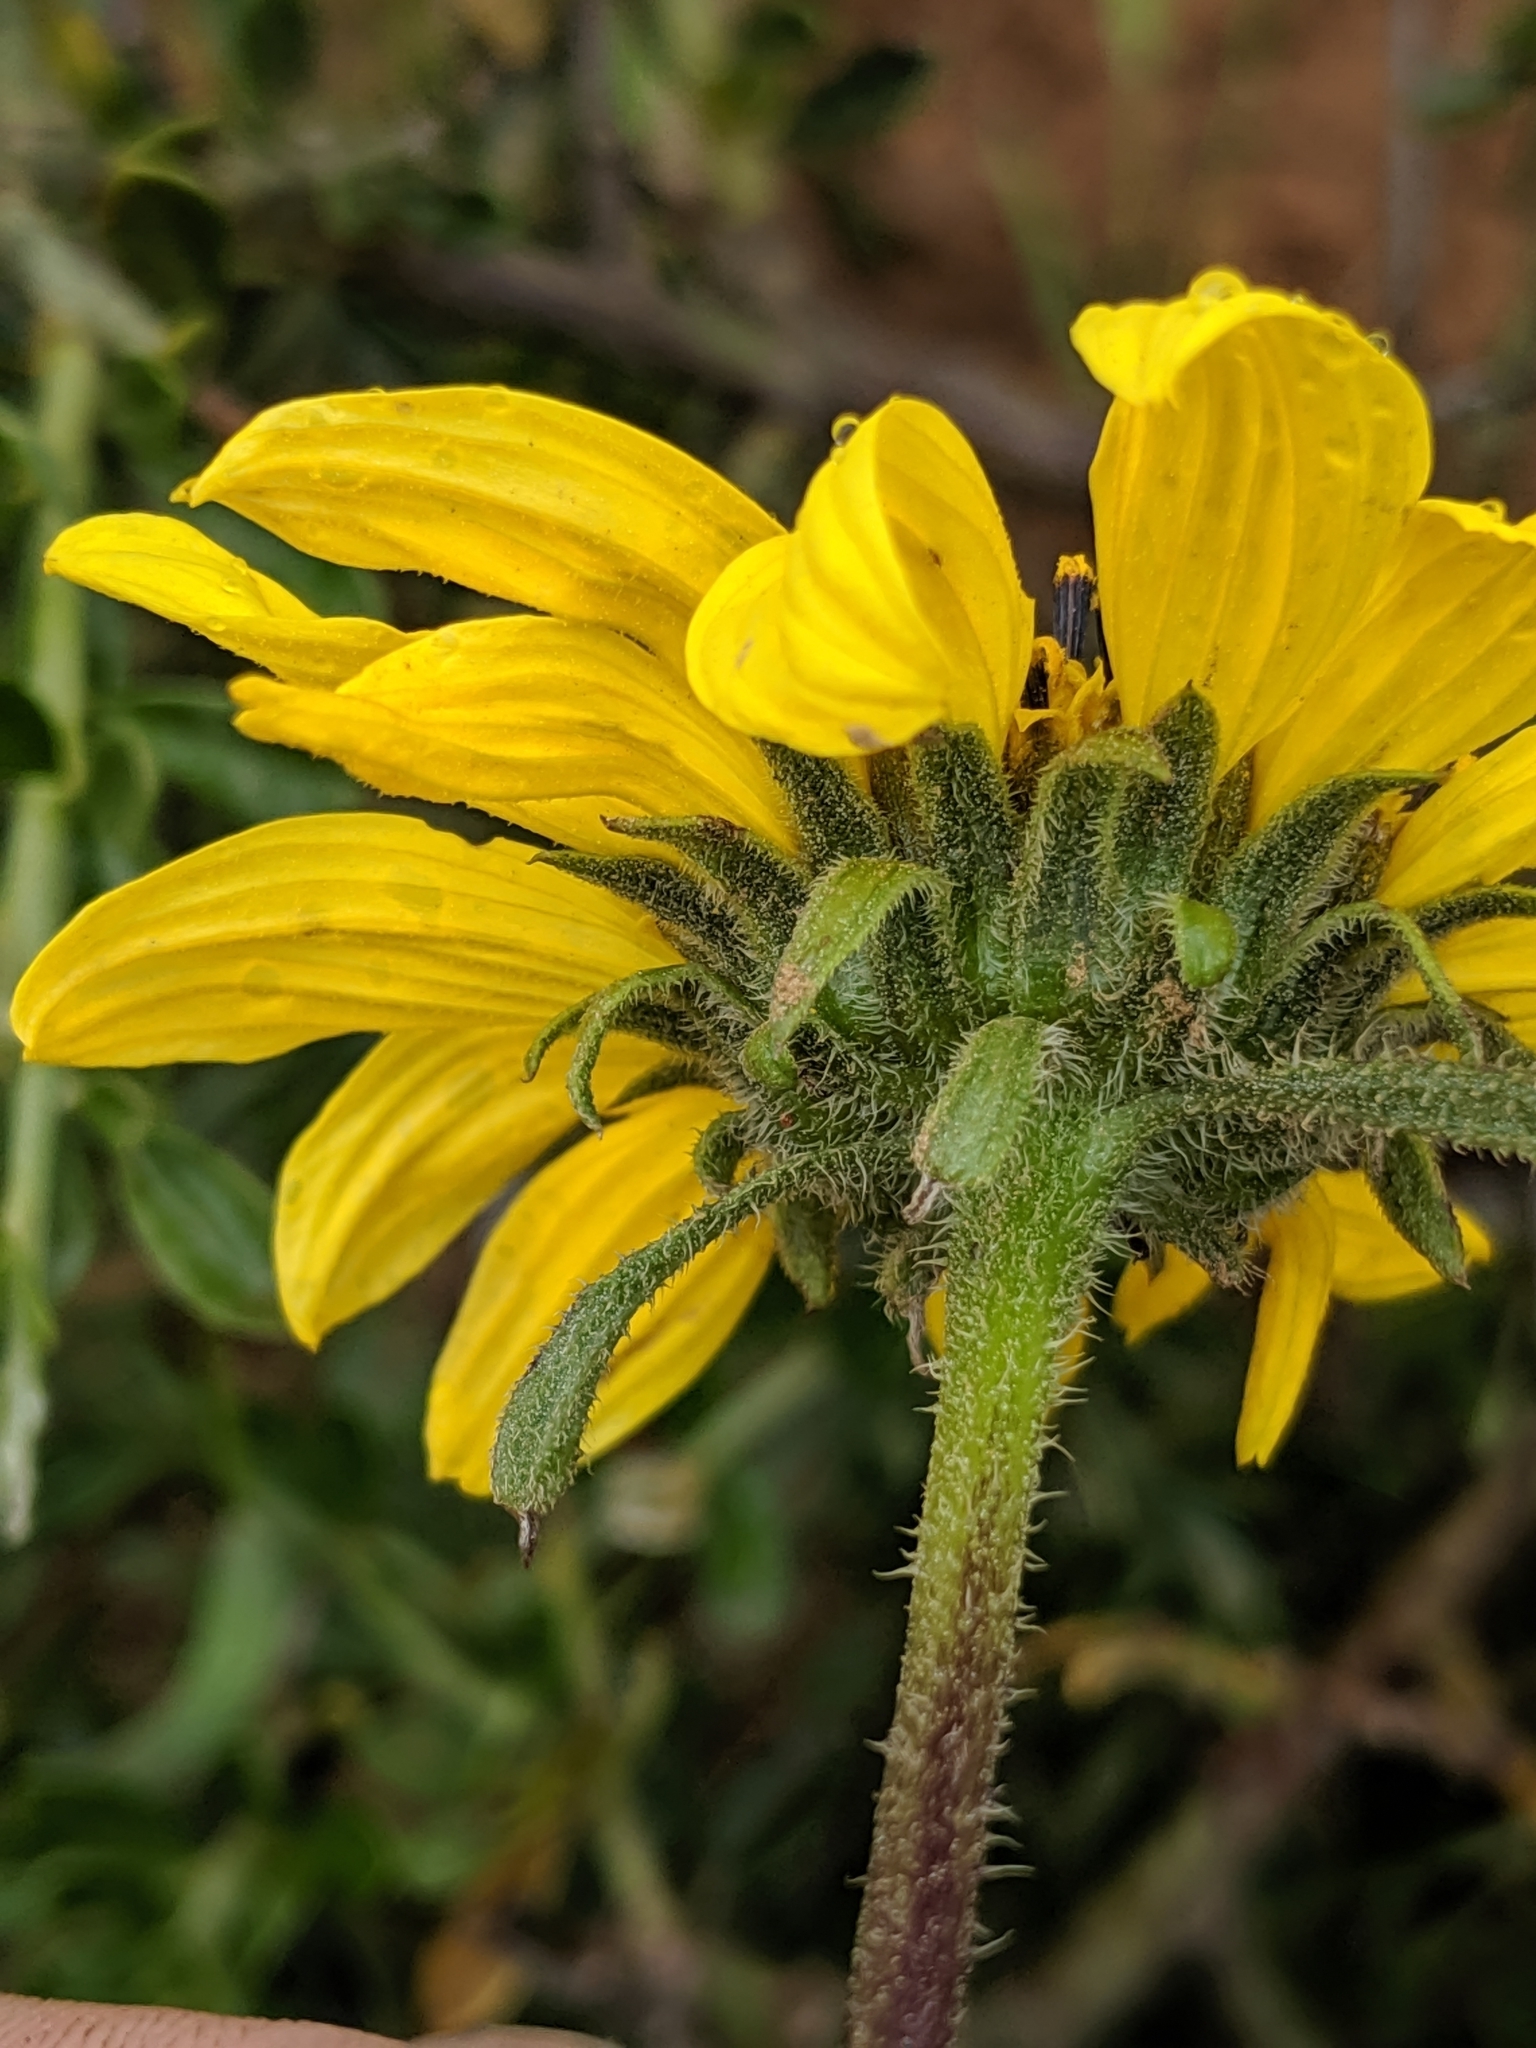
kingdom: Plantae
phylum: Tracheophyta
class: Magnoliopsida
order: Asterales
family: Asteraceae
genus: Helianthus
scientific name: Helianthus gracilentus
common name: Slender sunflower
